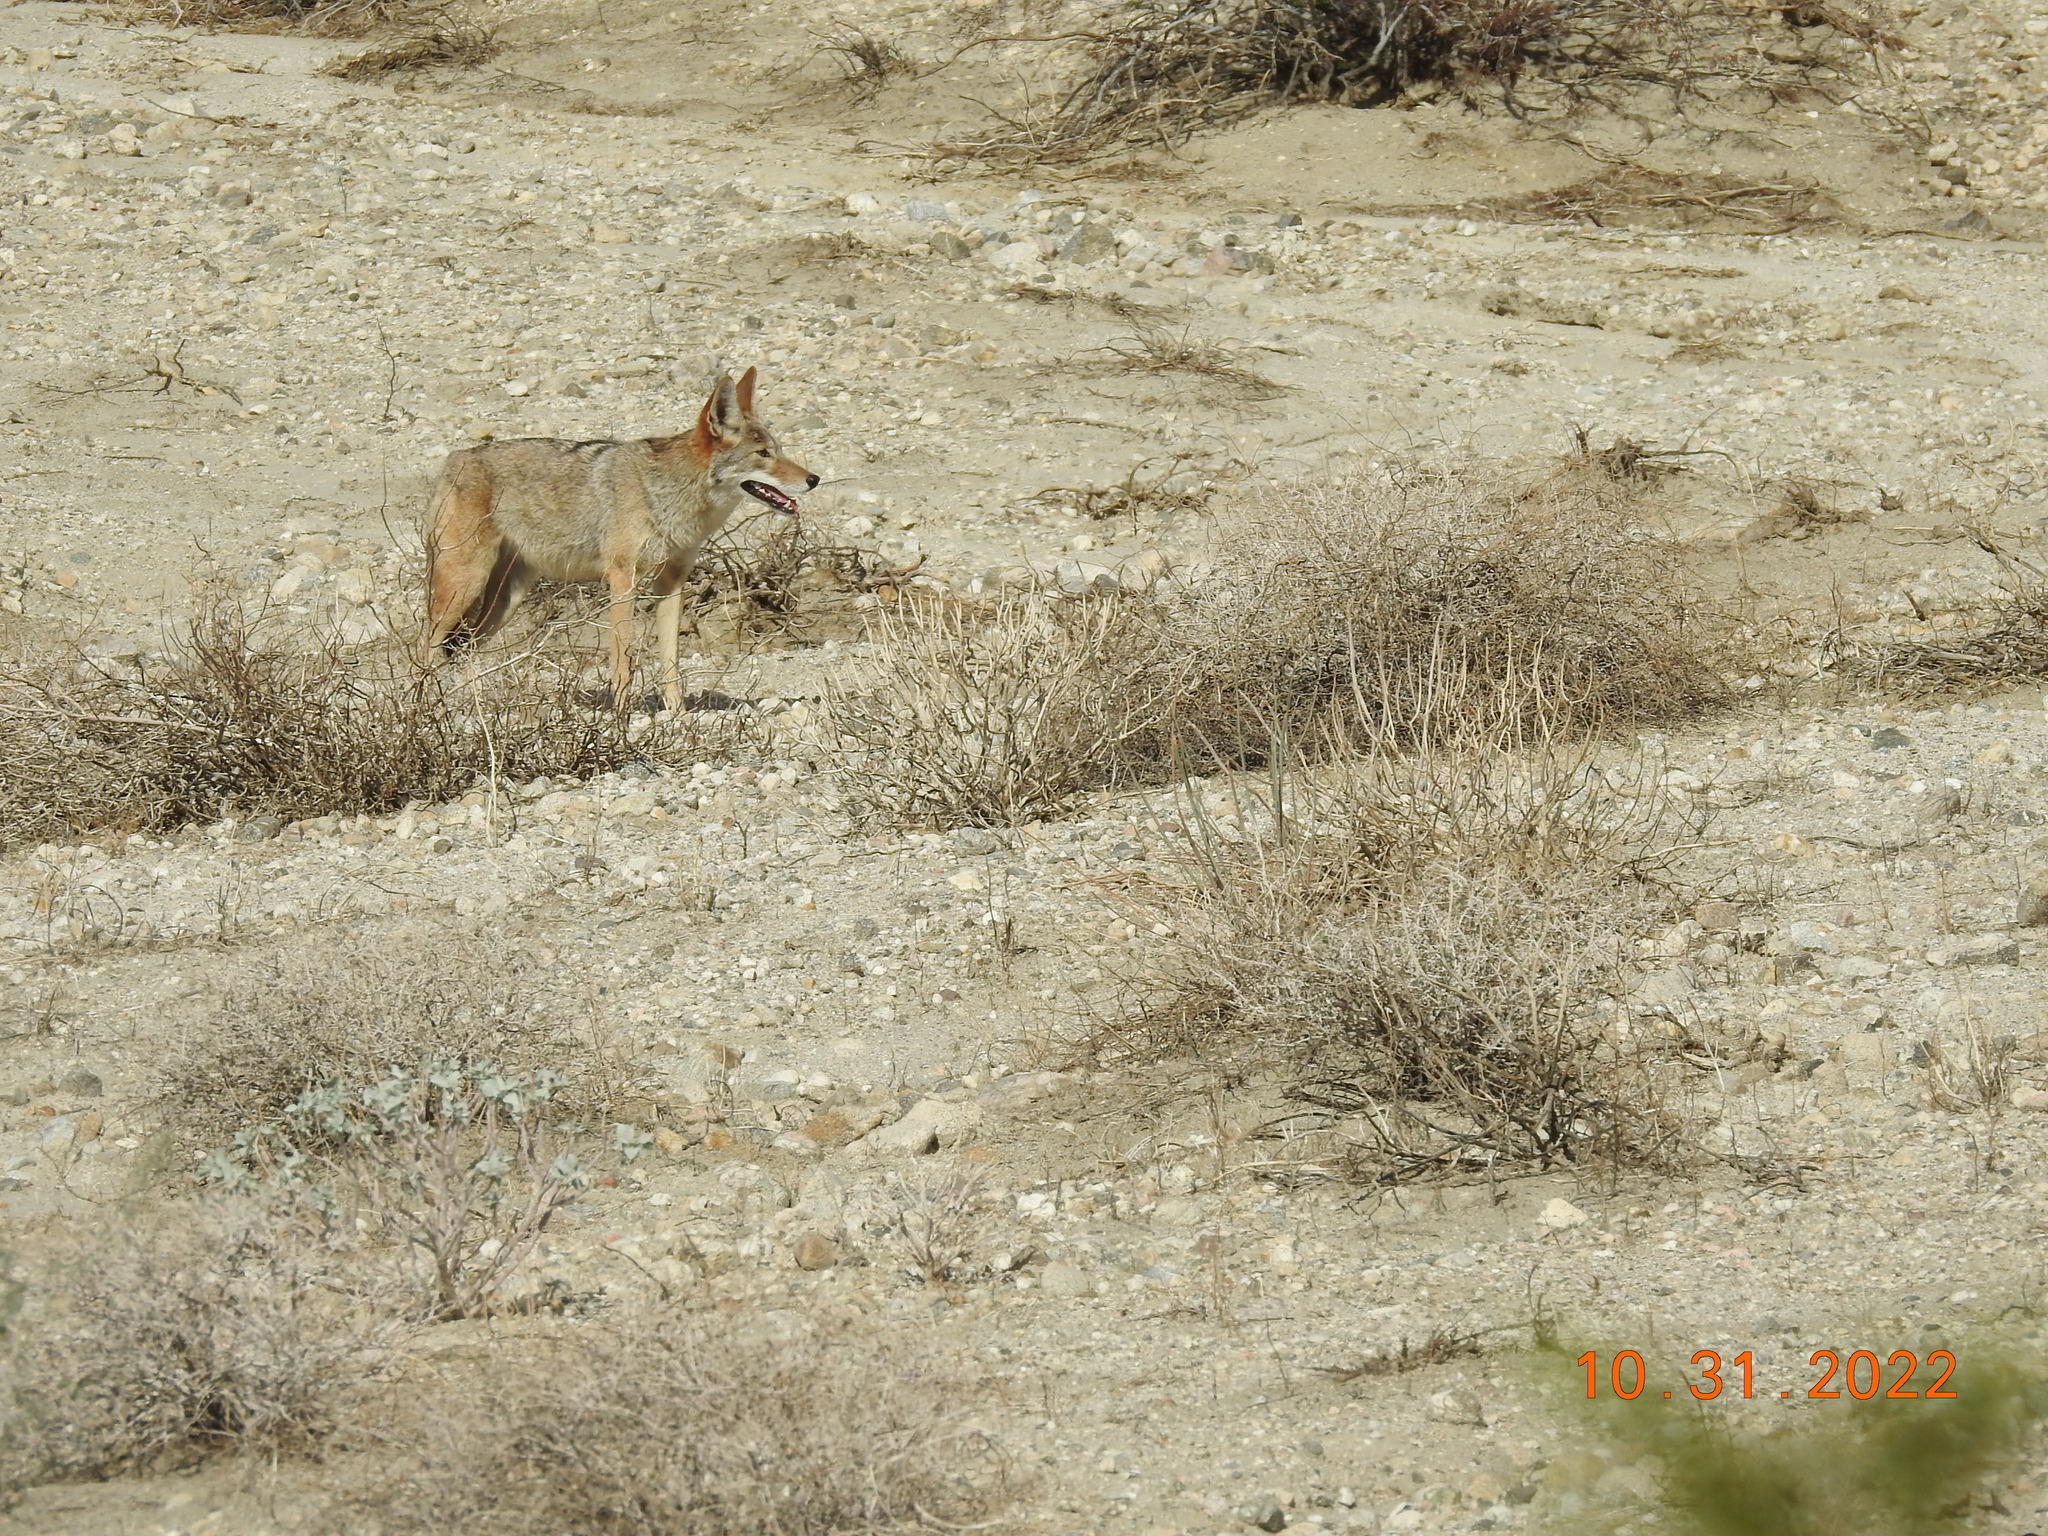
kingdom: Animalia
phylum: Chordata
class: Mammalia
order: Carnivora
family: Canidae
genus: Canis
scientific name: Canis latrans
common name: Coyote
